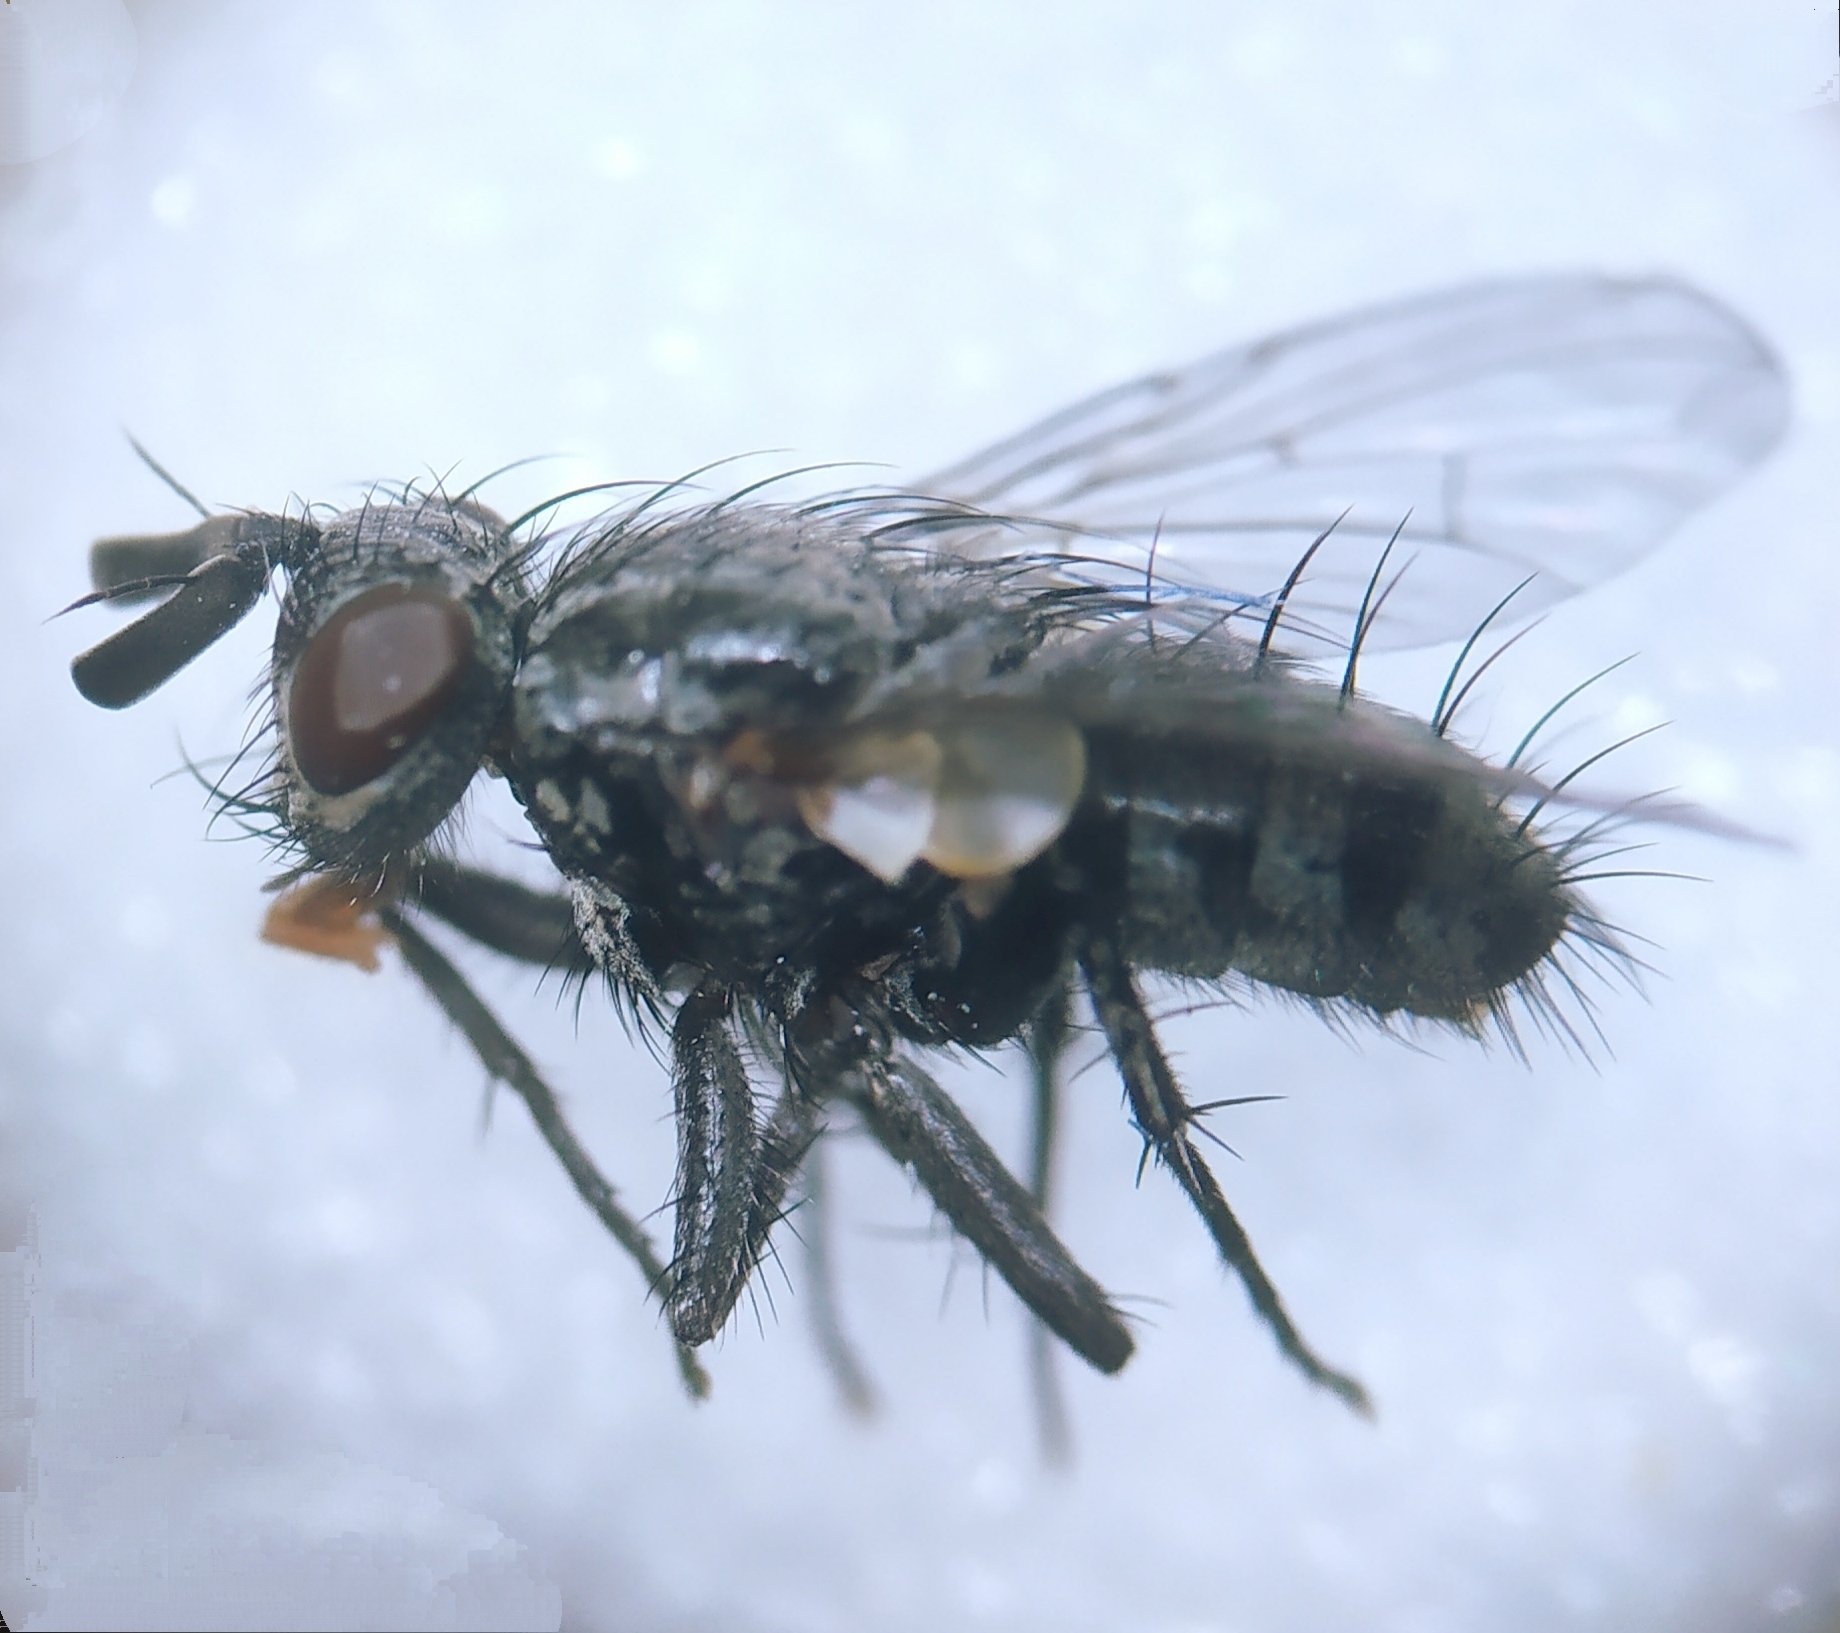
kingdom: Animalia
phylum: Arthropoda
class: Insecta
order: Diptera
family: Tachinidae
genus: Triarthria
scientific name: Triarthria setipennis
